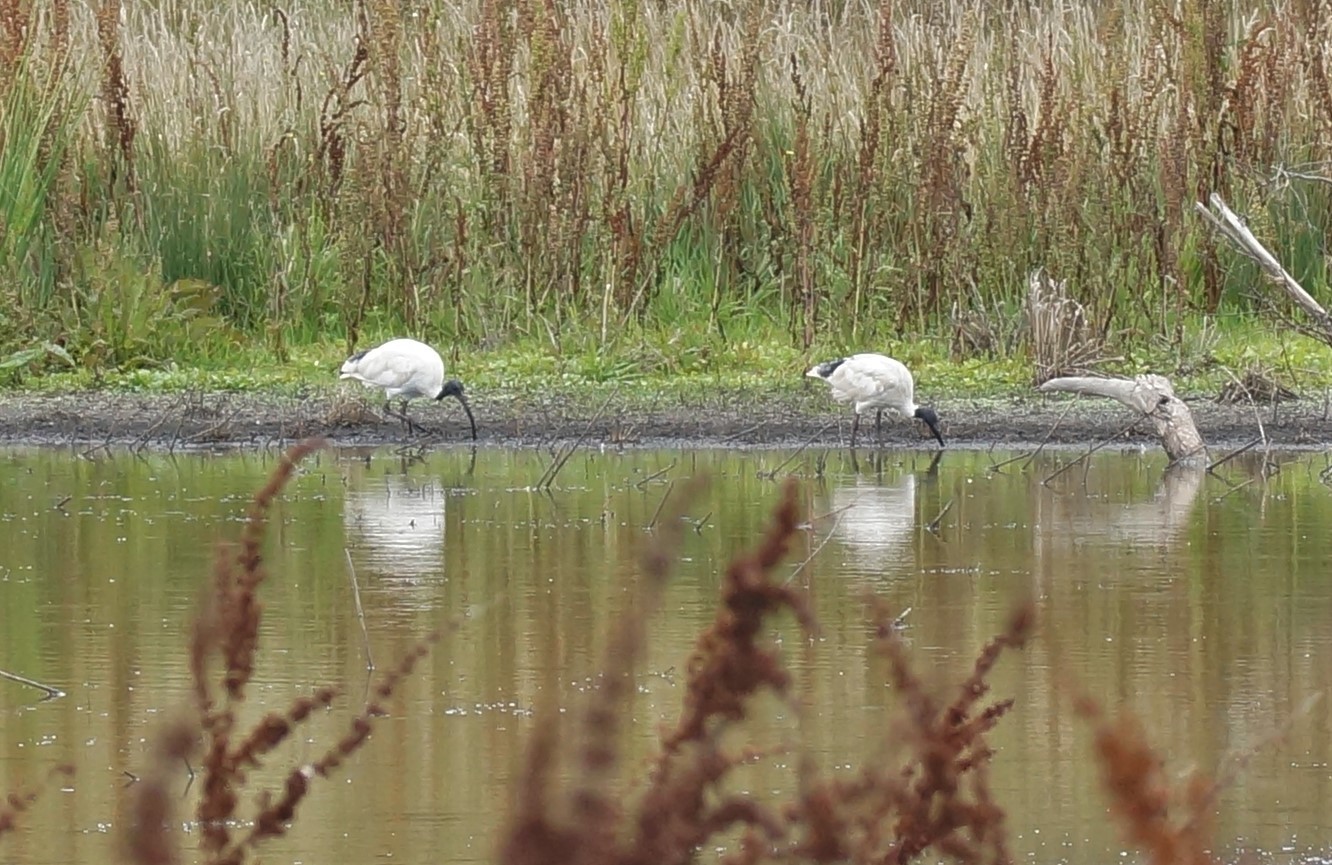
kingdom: Animalia
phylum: Chordata
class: Aves
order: Pelecaniformes
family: Threskiornithidae
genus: Threskiornis
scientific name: Threskiornis molucca
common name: Australian white ibis
